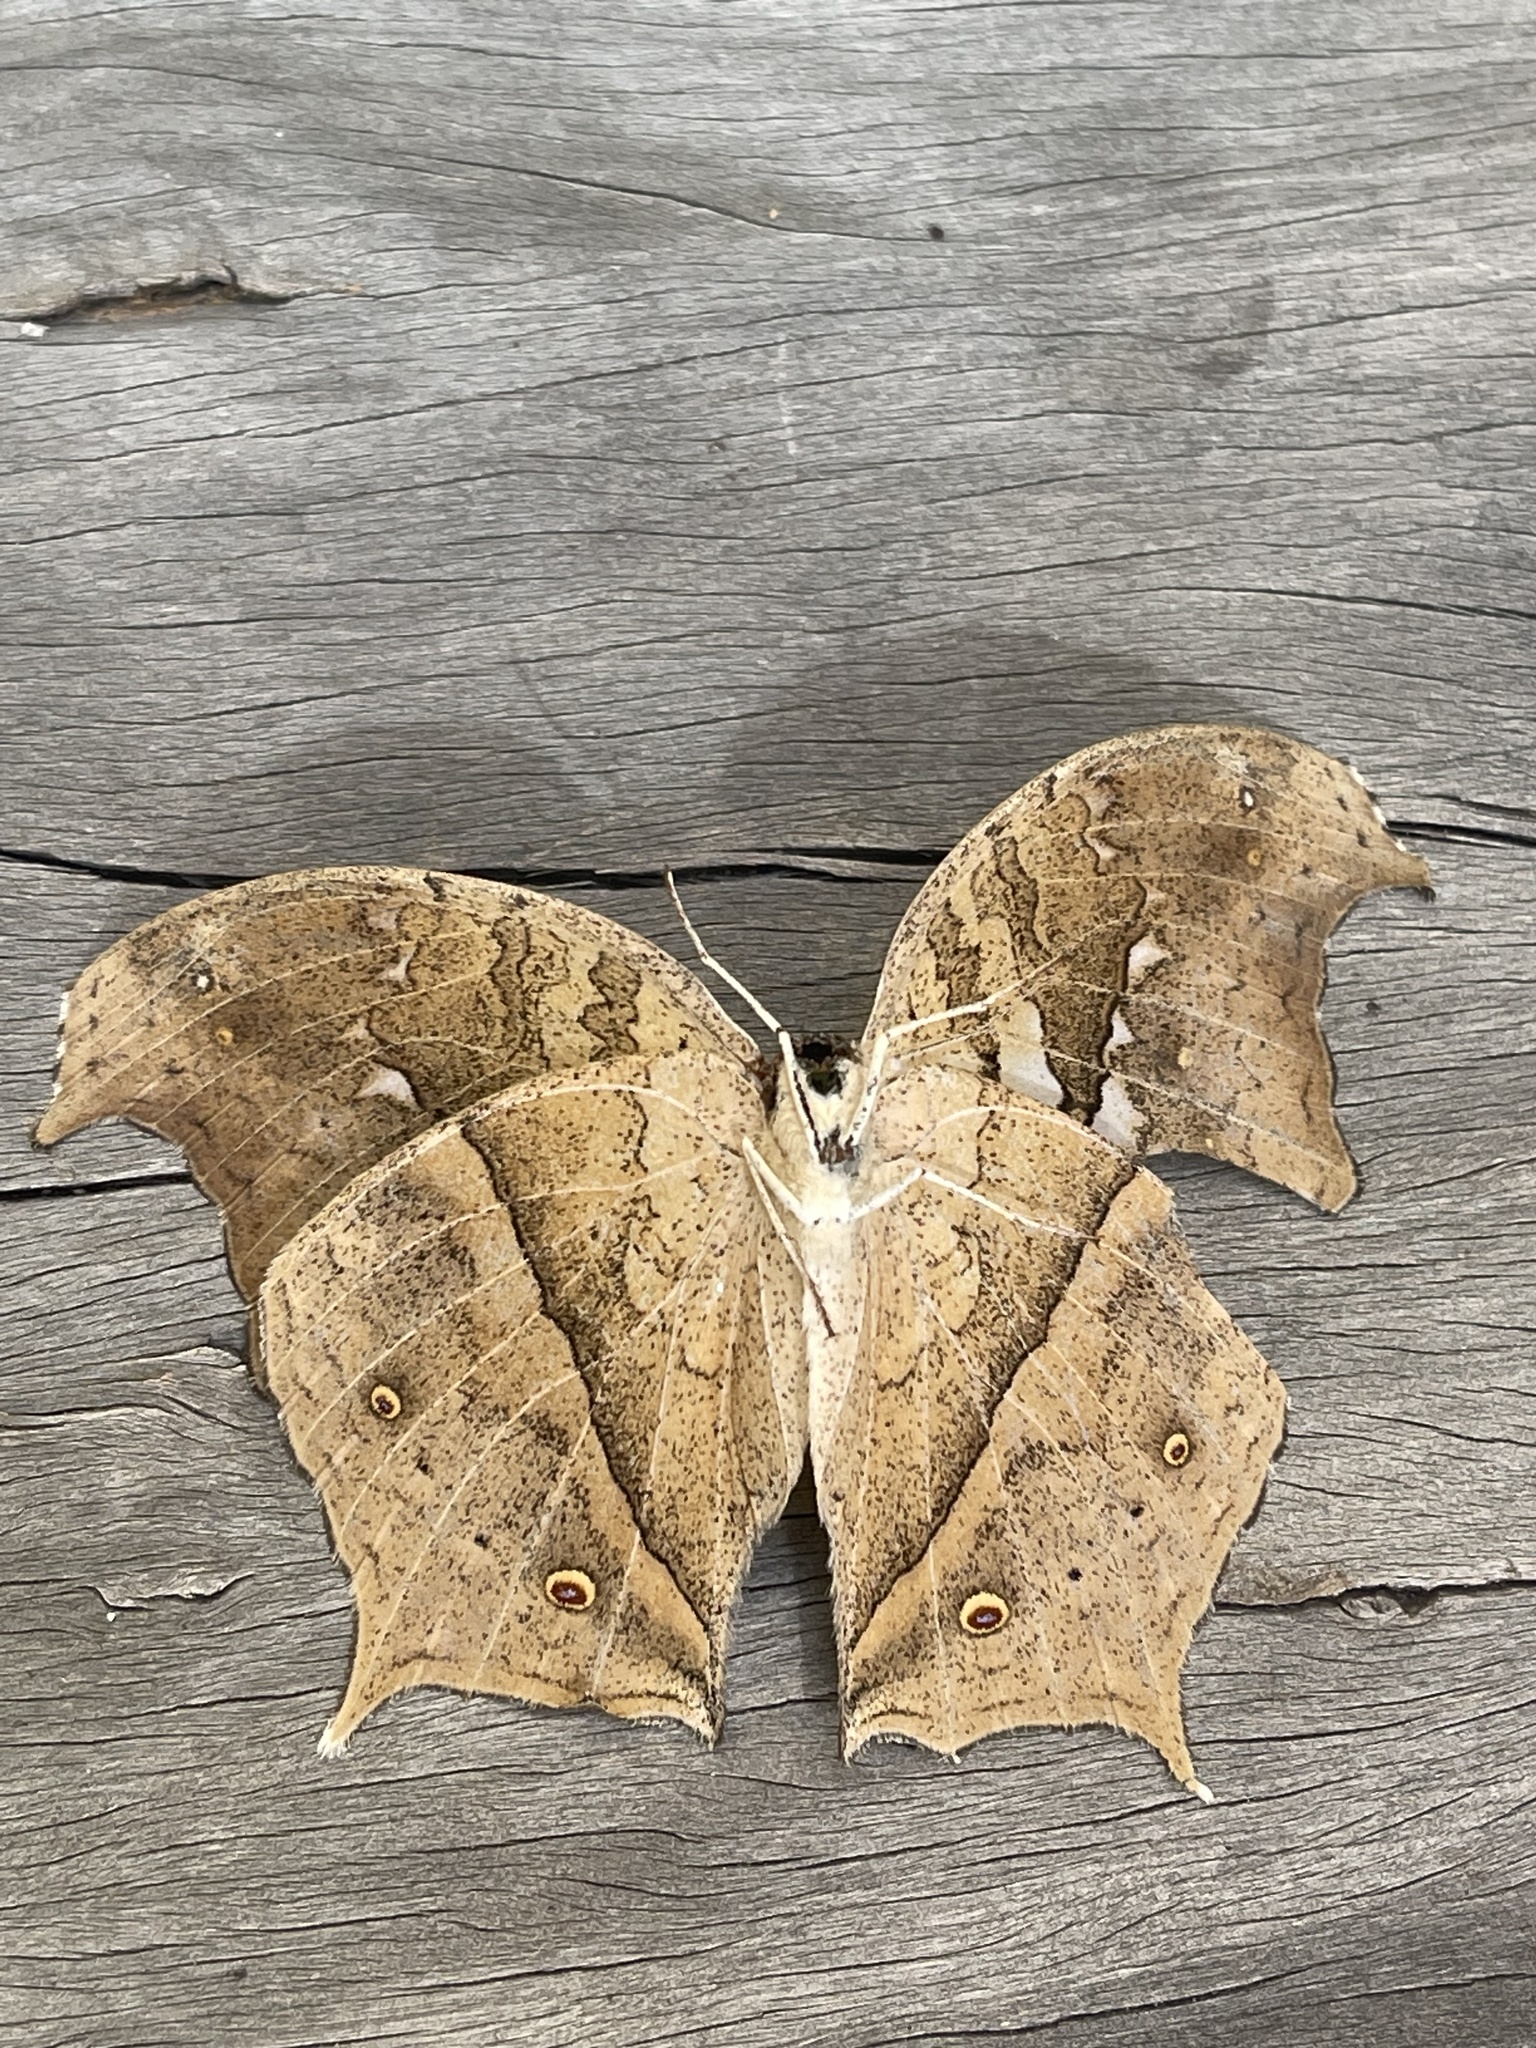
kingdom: Animalia
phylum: Arthropoda
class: Insecta
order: Lepidoptera
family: Nymphalidae
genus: Salamis
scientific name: Salamis
